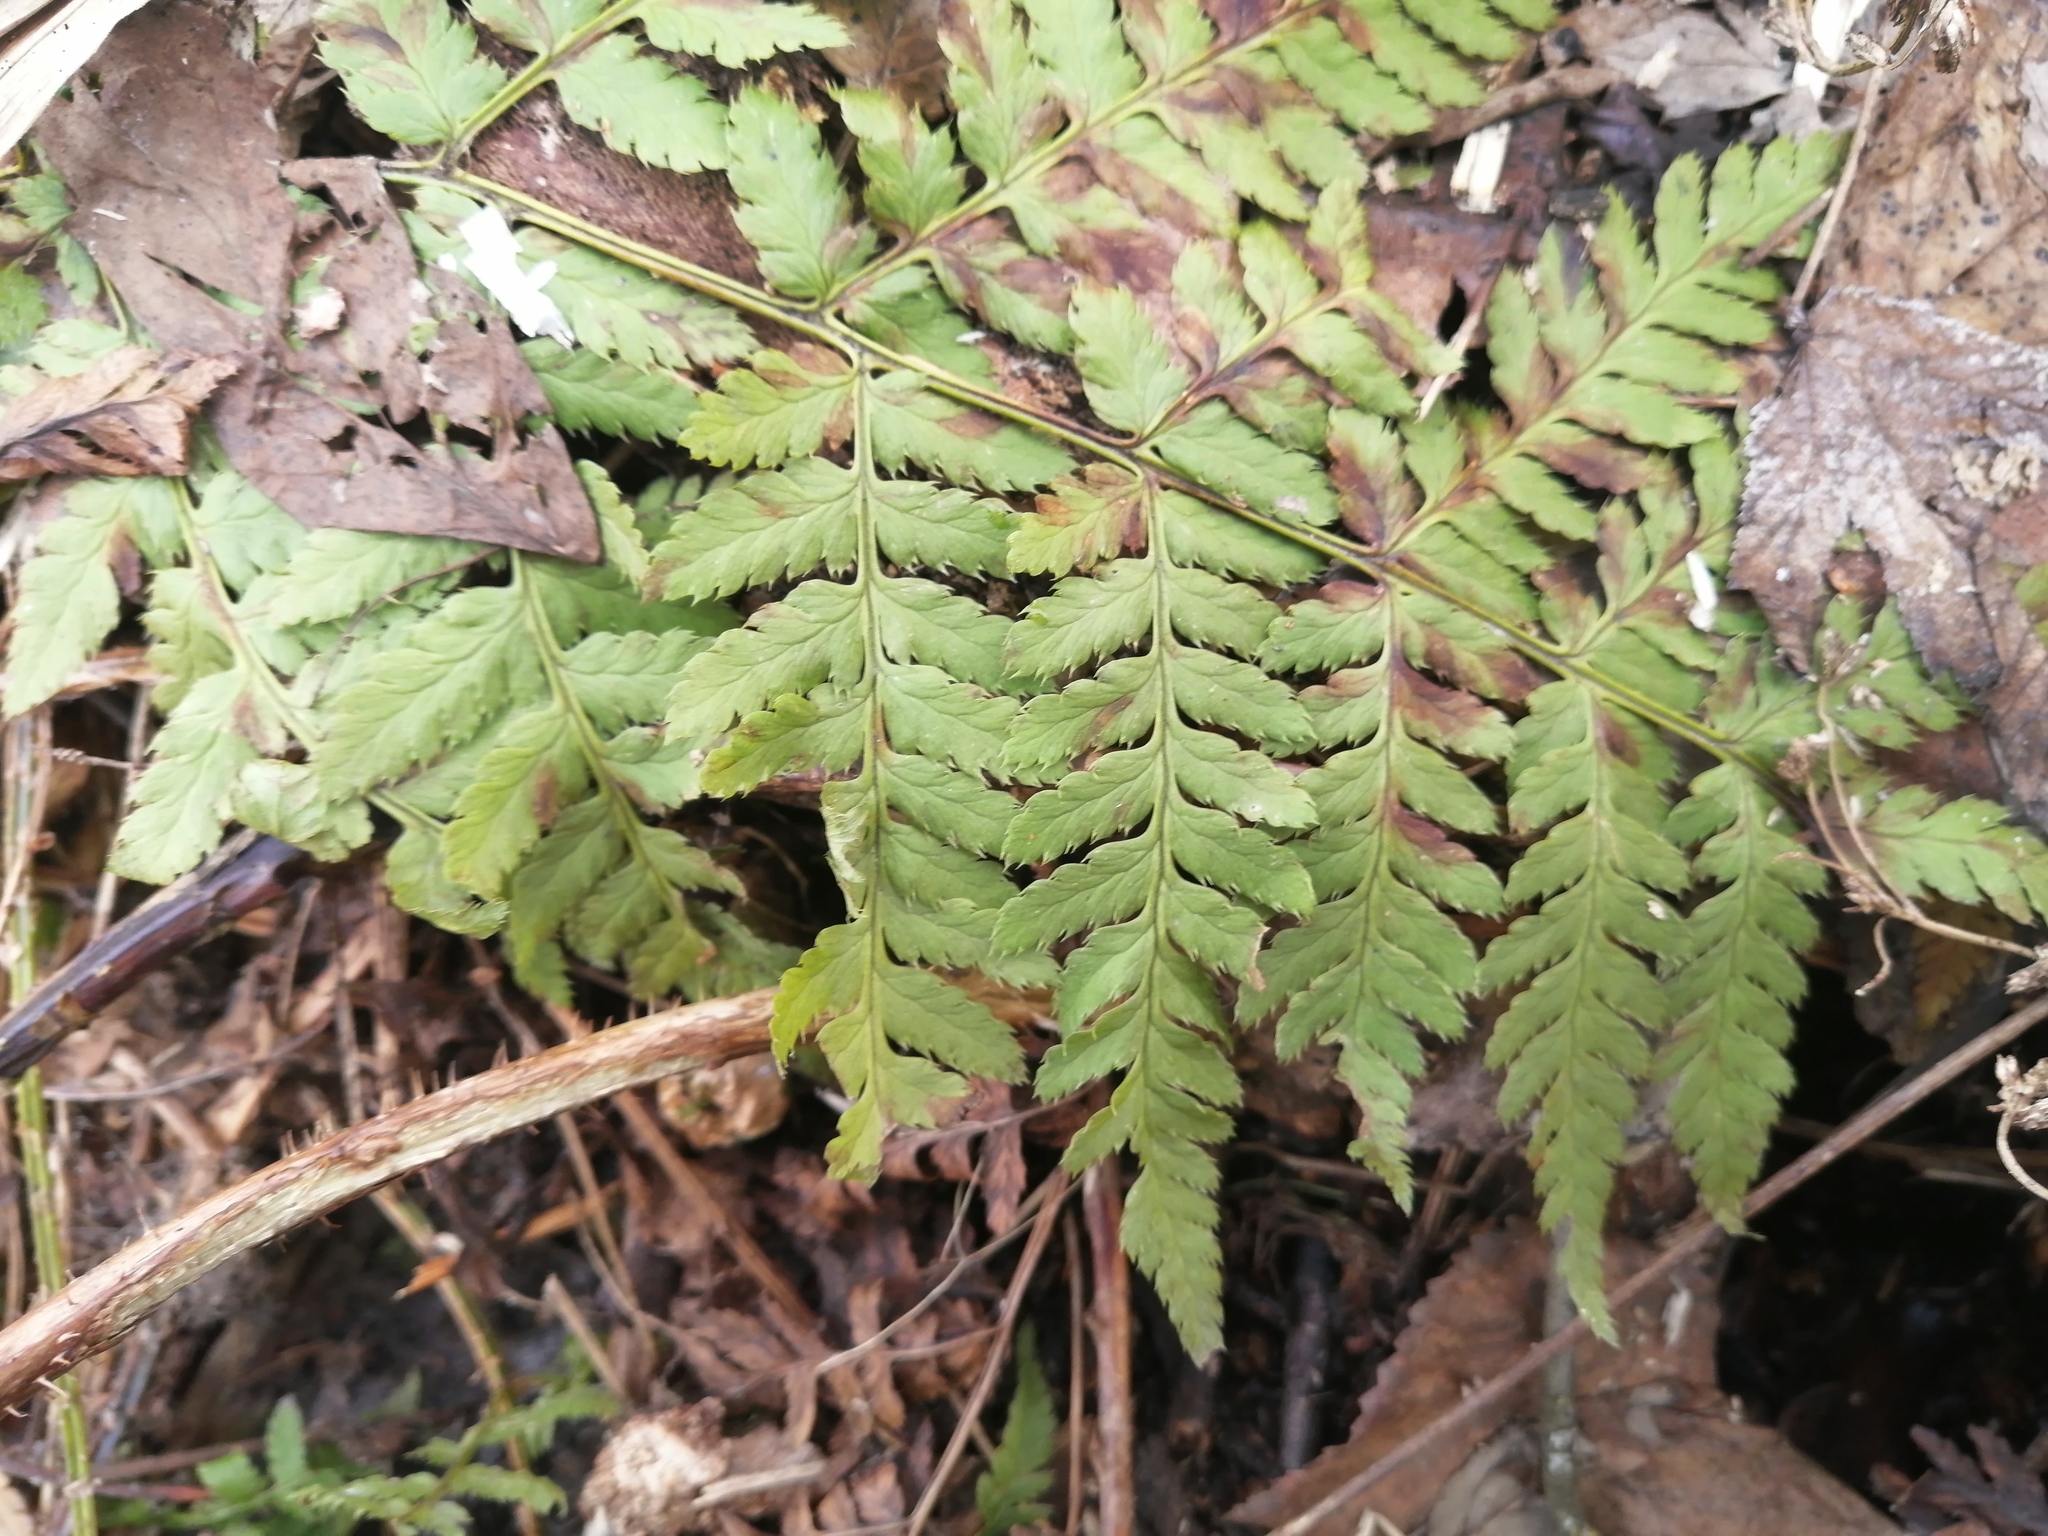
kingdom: Plantae
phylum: Tracheophyta
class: Polypodiopsida
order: Polypodiales
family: Dryopteridaceae
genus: Dryopteris
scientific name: Dryopteris carthusiana
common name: Narrow buckler-fern
